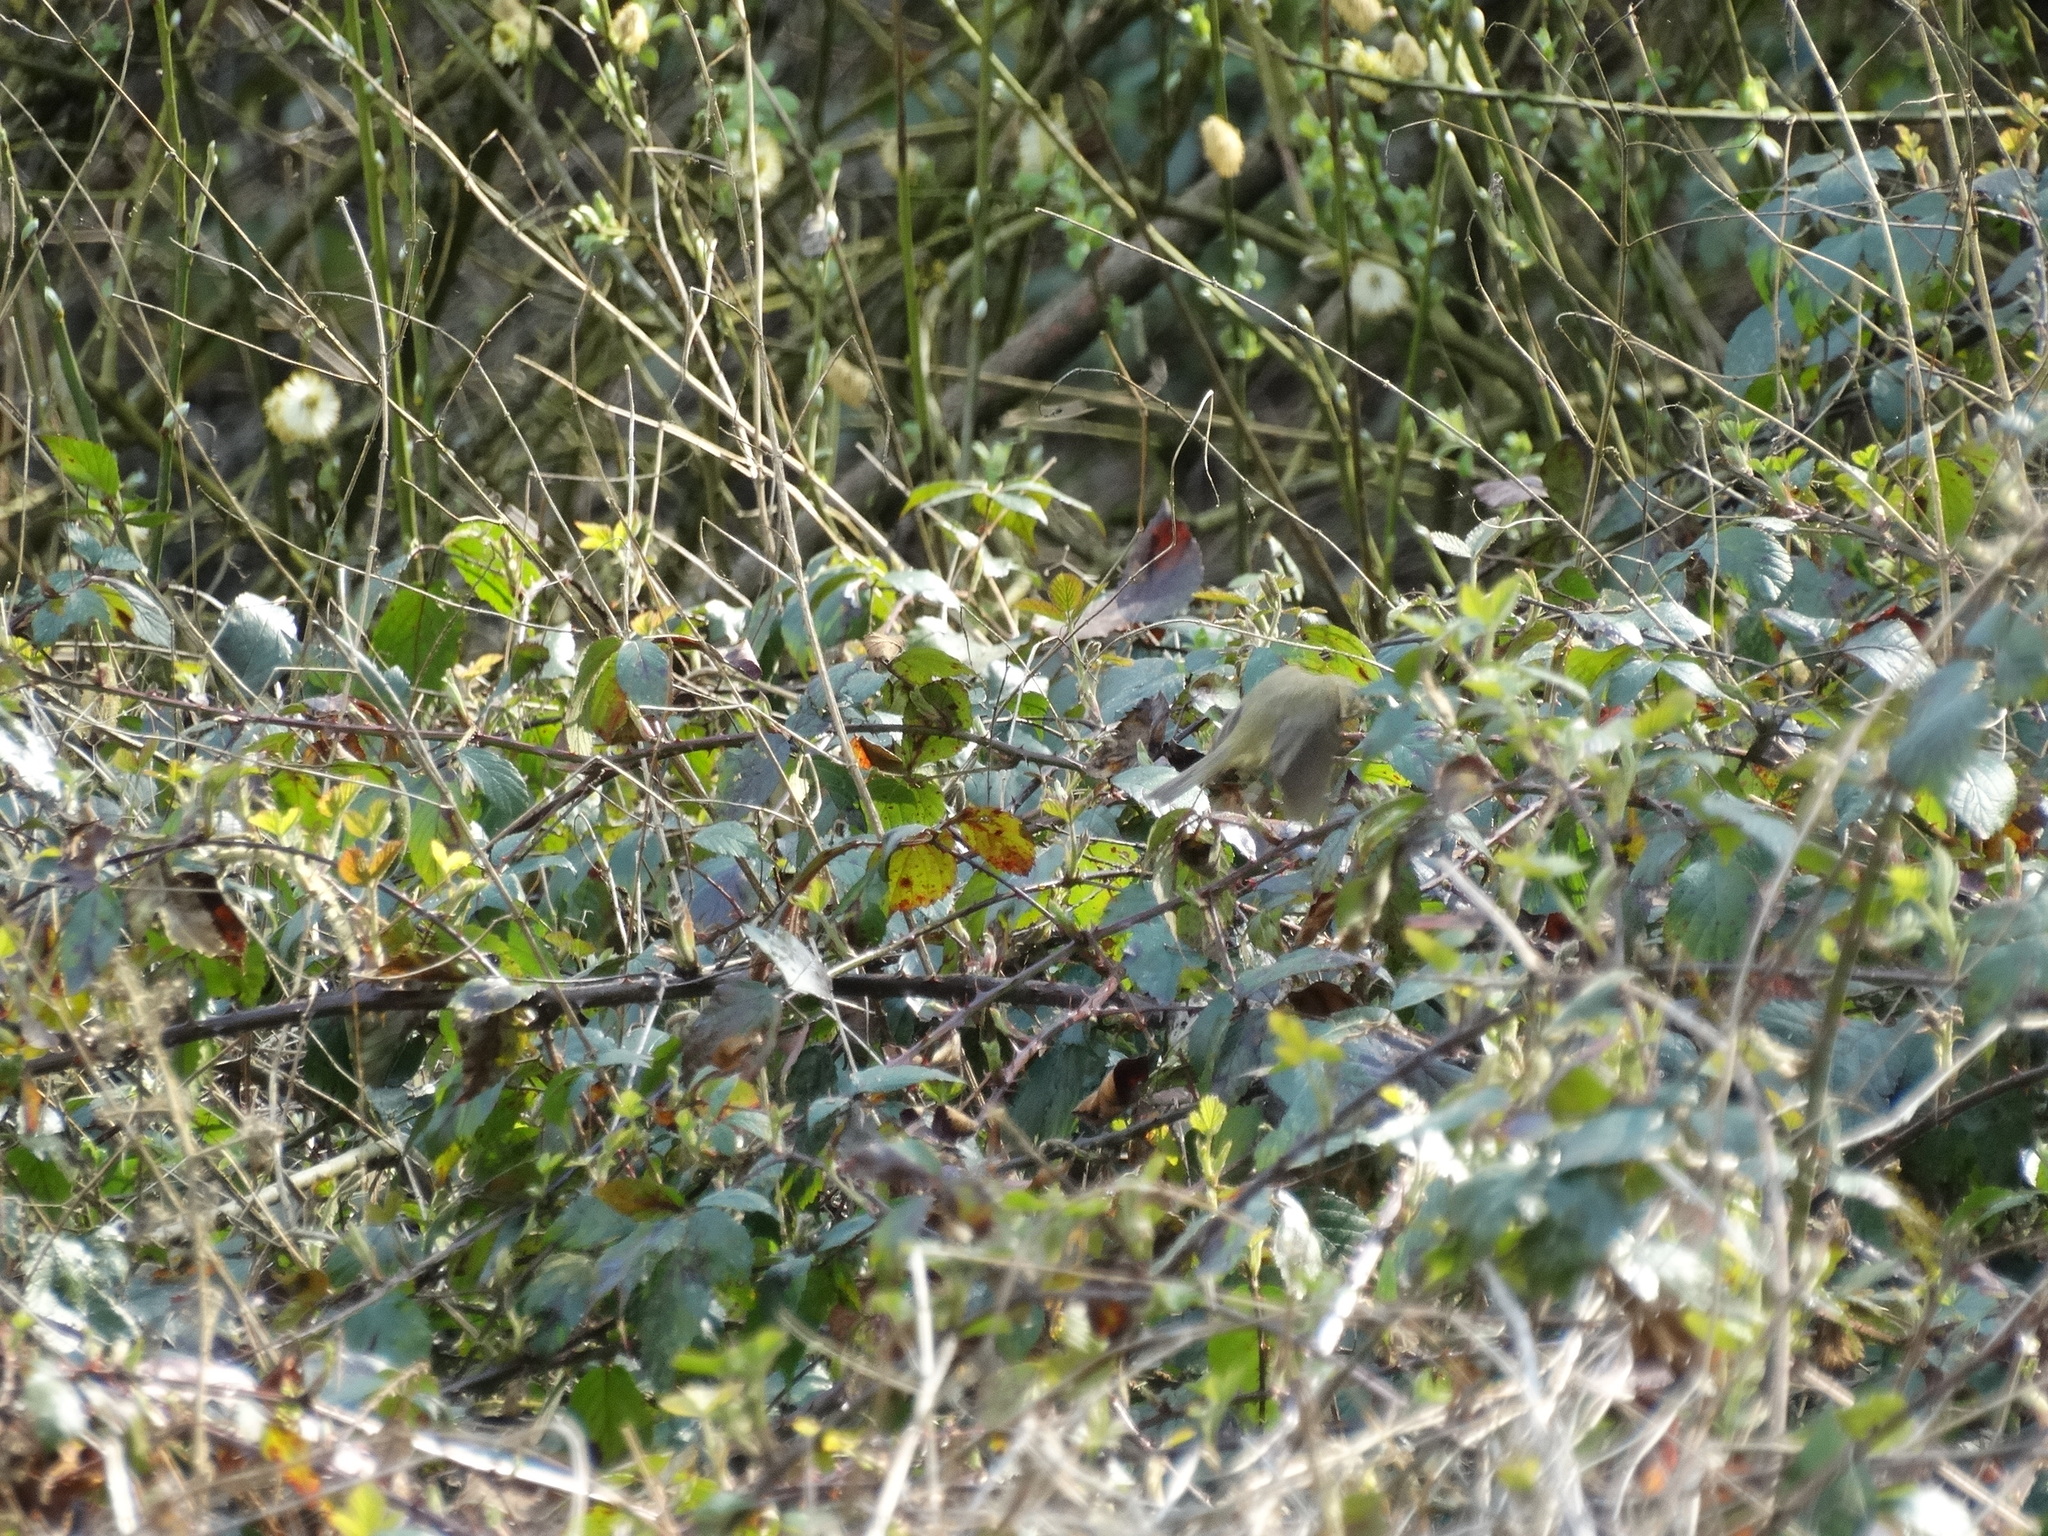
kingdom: Animalia
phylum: Chordata
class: Aves
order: Passeriformes
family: Phylloscopidae
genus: Phylloscopus
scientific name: Phylloscopus collybita
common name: Common chiffchaff
